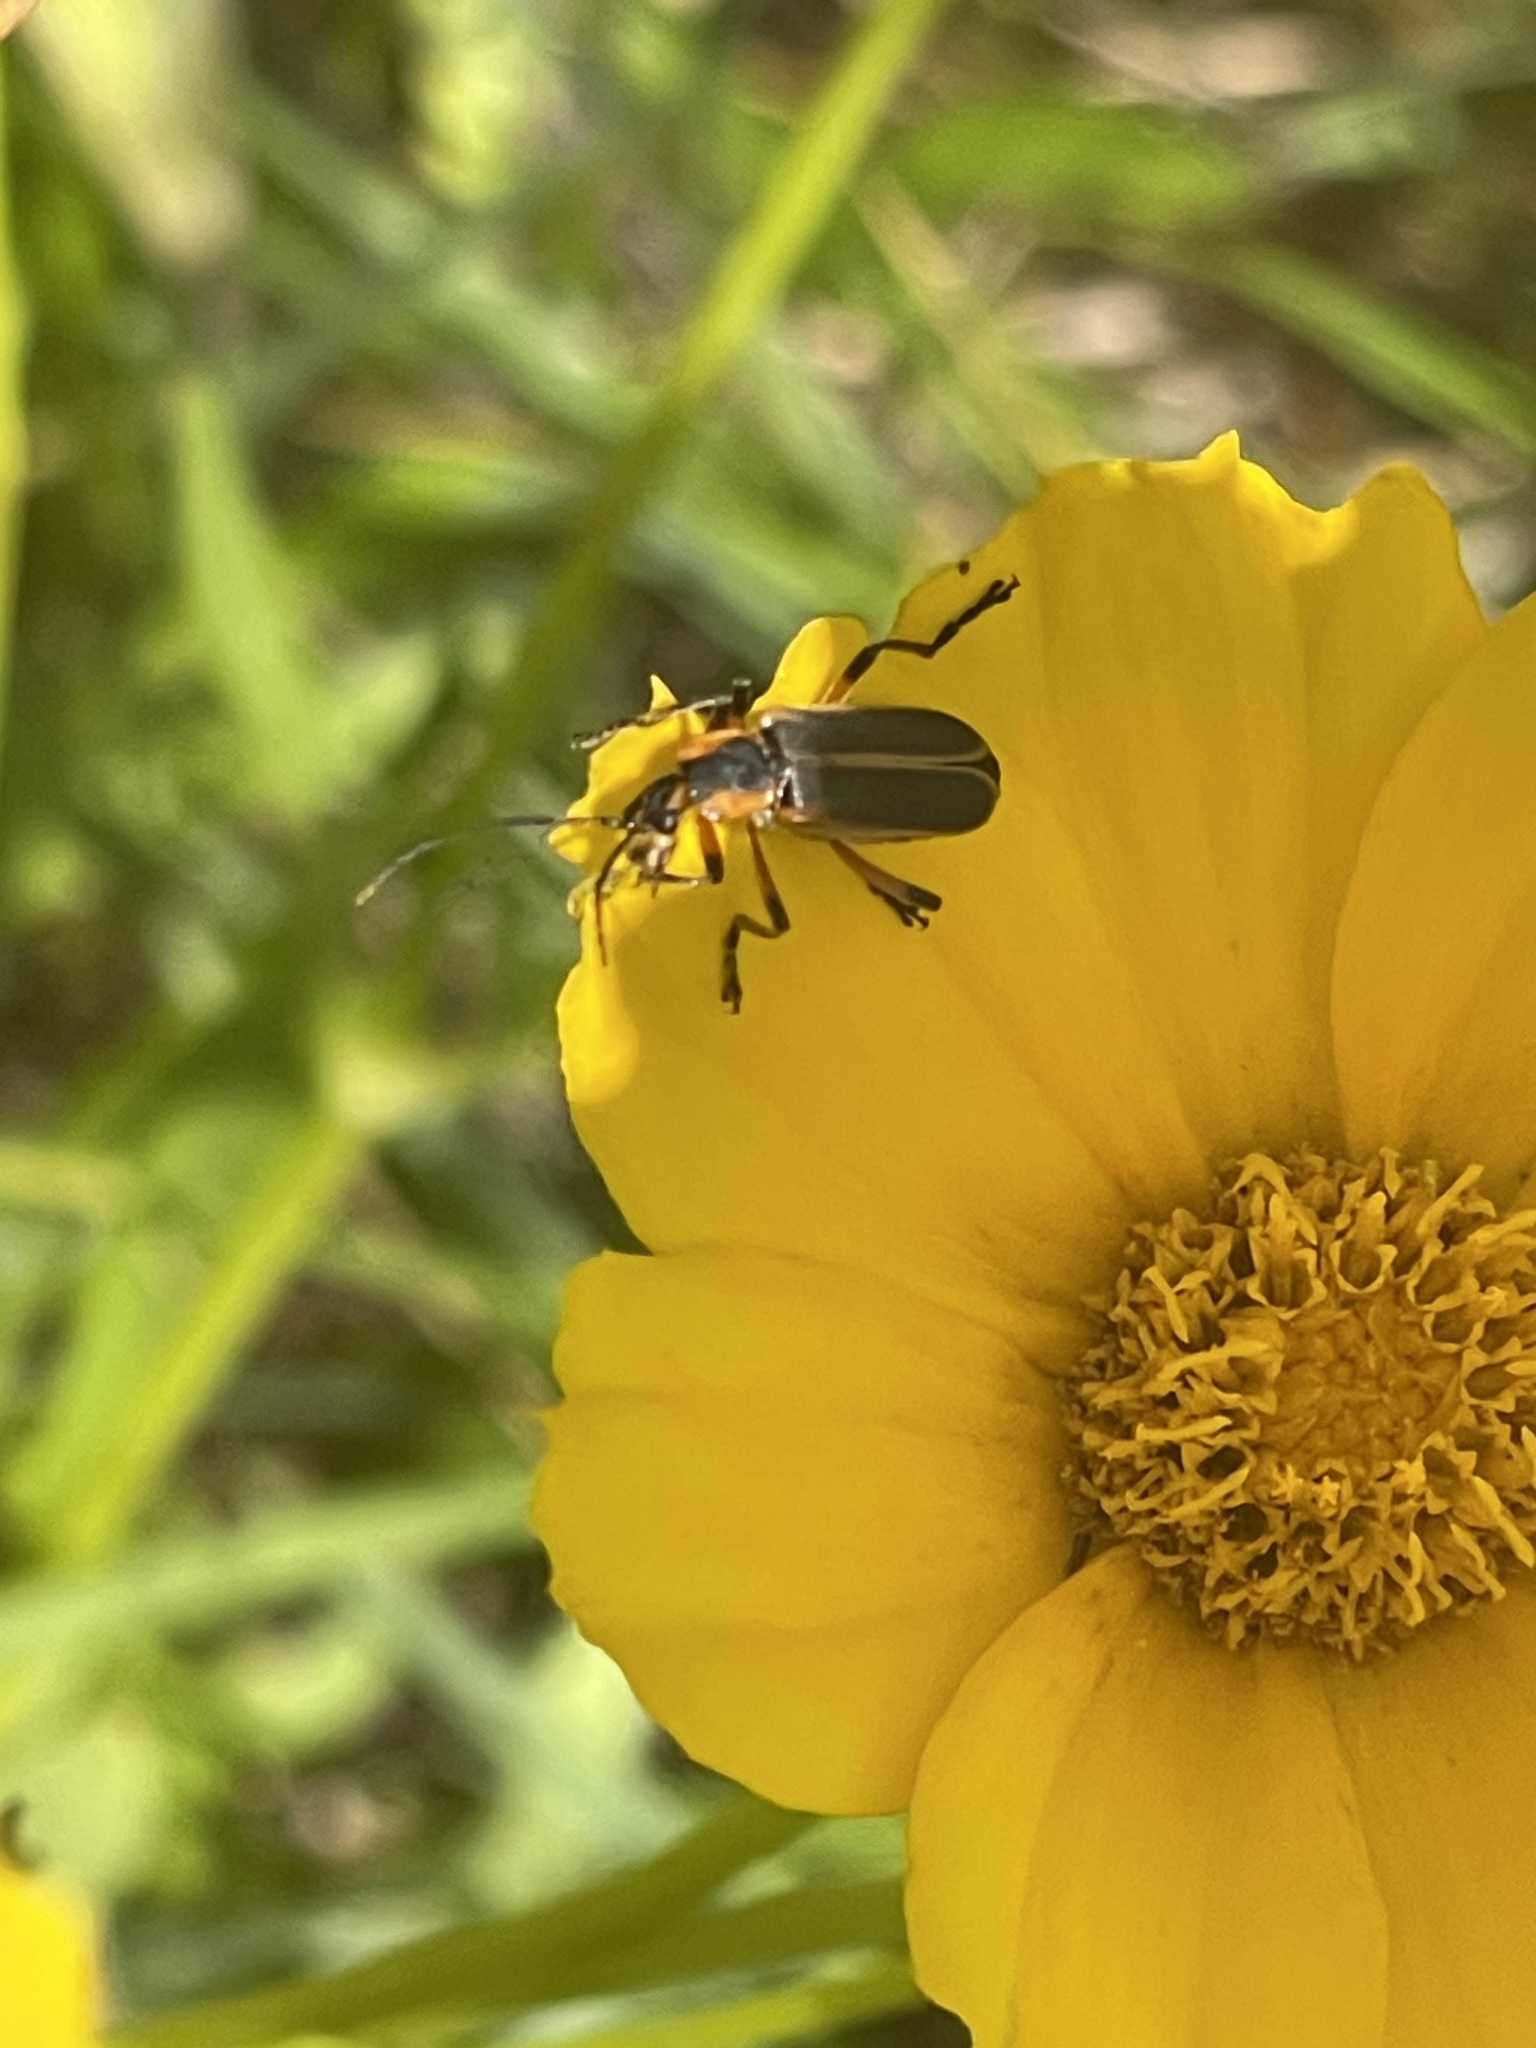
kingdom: Animalia
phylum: Arthropoda
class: Insecta
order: Coleoptera
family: Cantharidae
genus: Chauliognathus
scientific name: Chauliognathus marginatus
